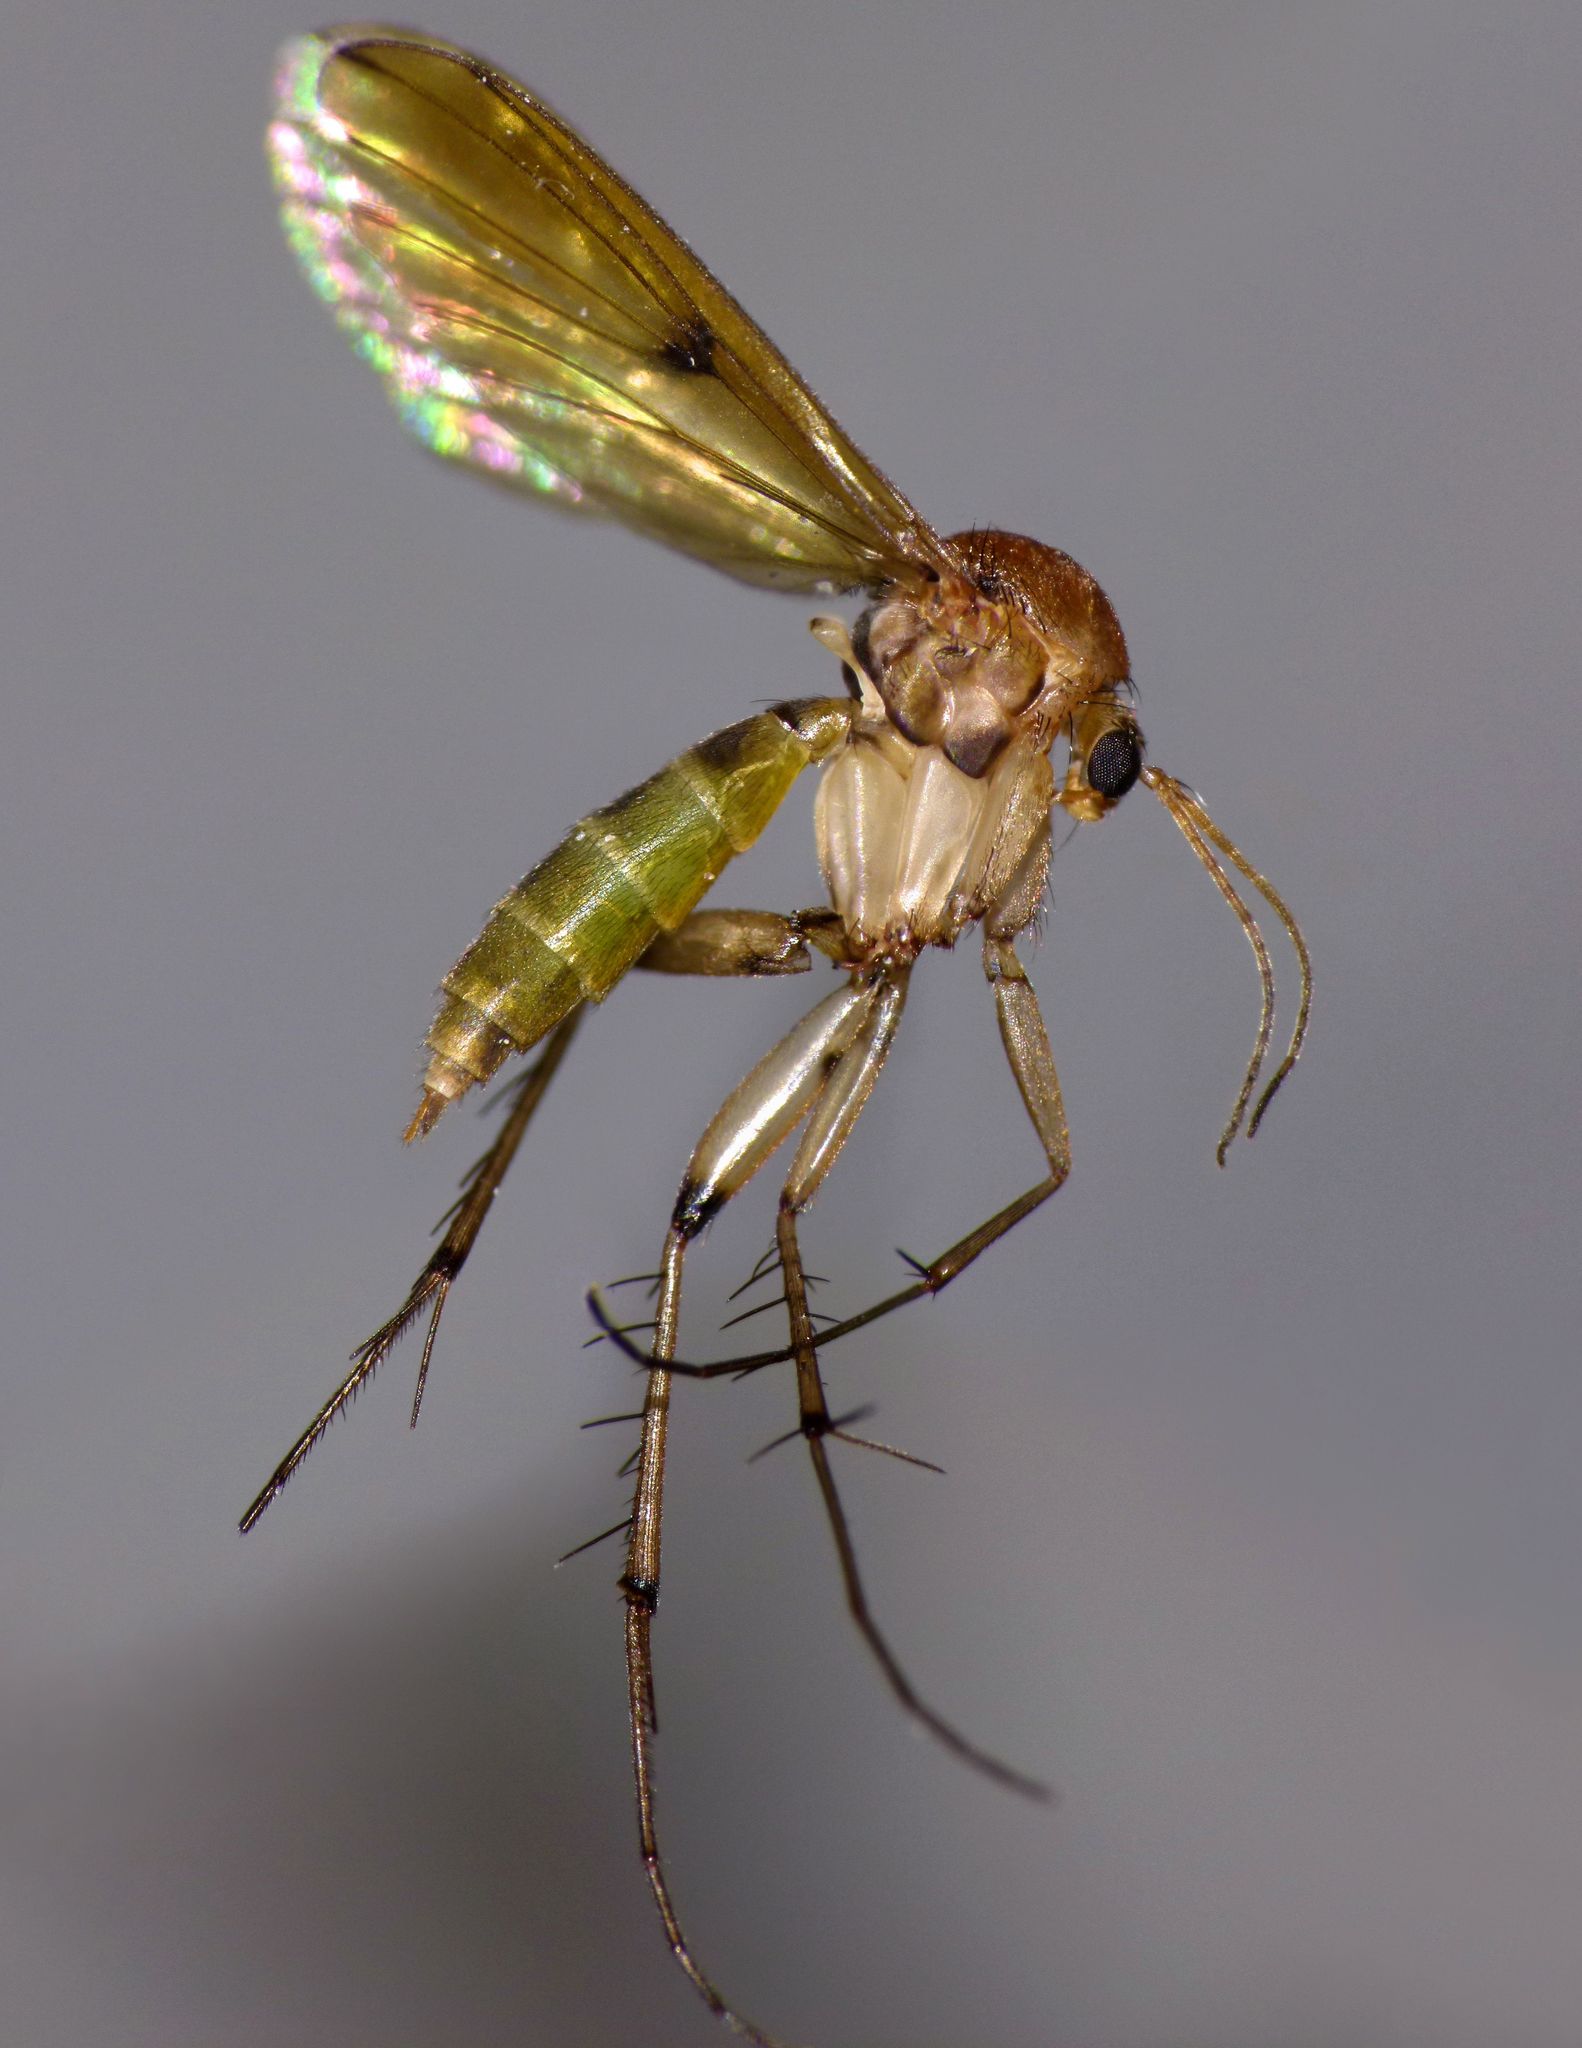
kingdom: Animalia
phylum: Arthropoda
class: Insecta
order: Diptera
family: Mycetophilidae
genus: Mycetophila
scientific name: Mycetophila marginepunctata
